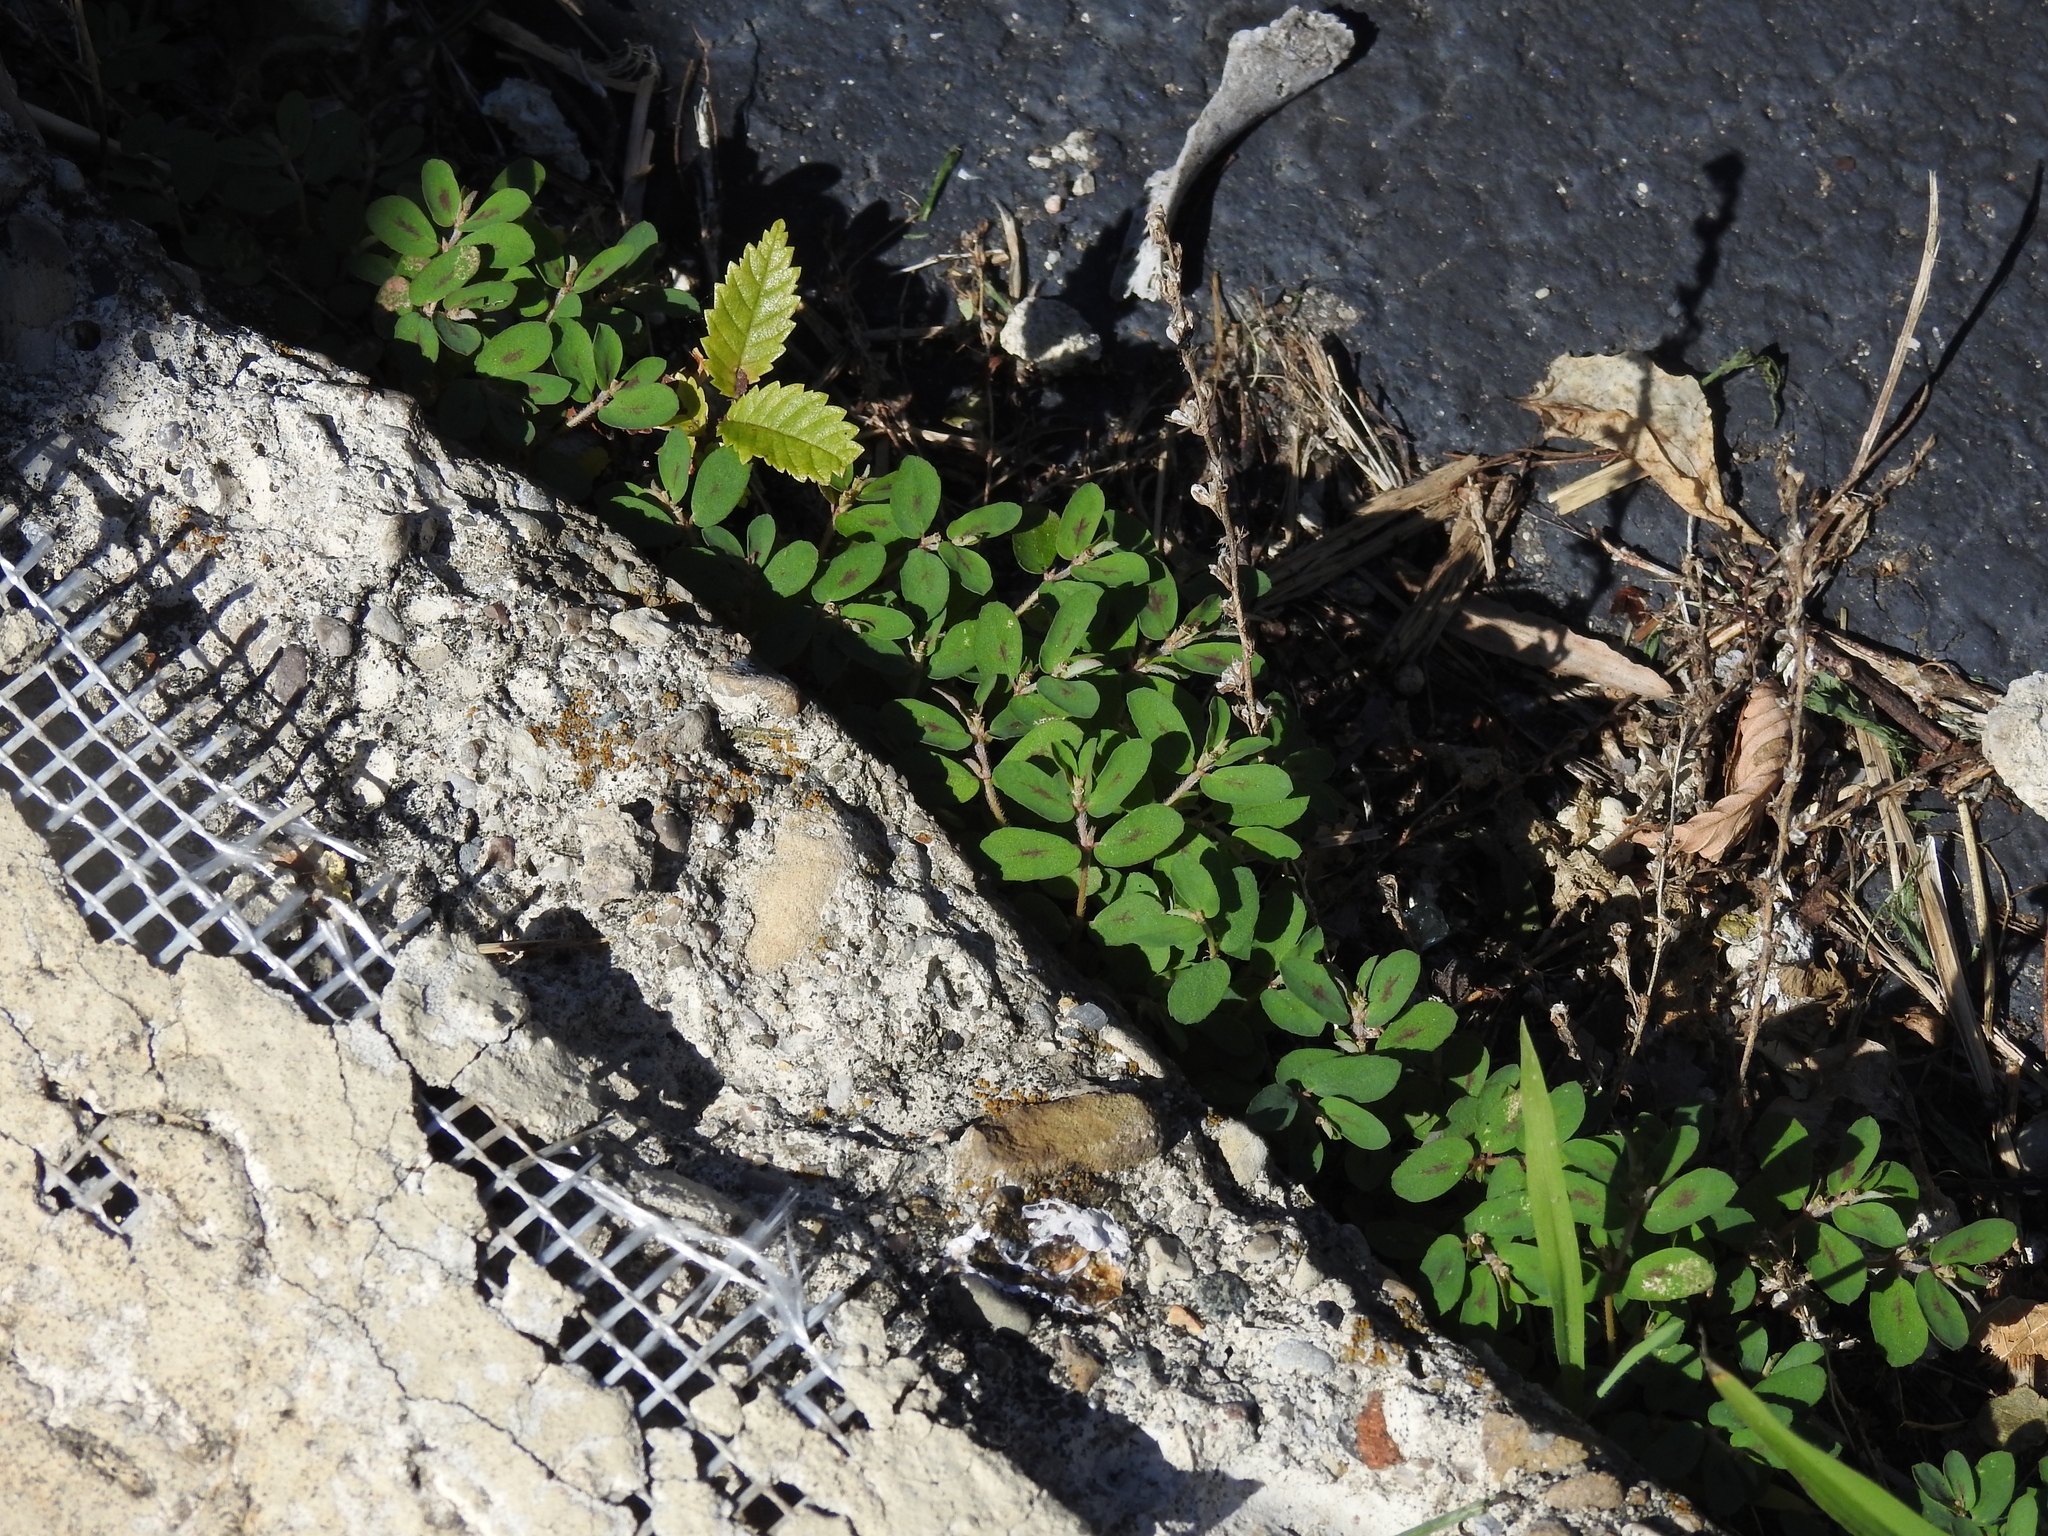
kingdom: Plantae
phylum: Tracheophyta
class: Magnoliopsida
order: Malpighiales
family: Euphorbiaceae
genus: Euphorbia
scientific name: Euphorbia maculata
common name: Spotted spurge
